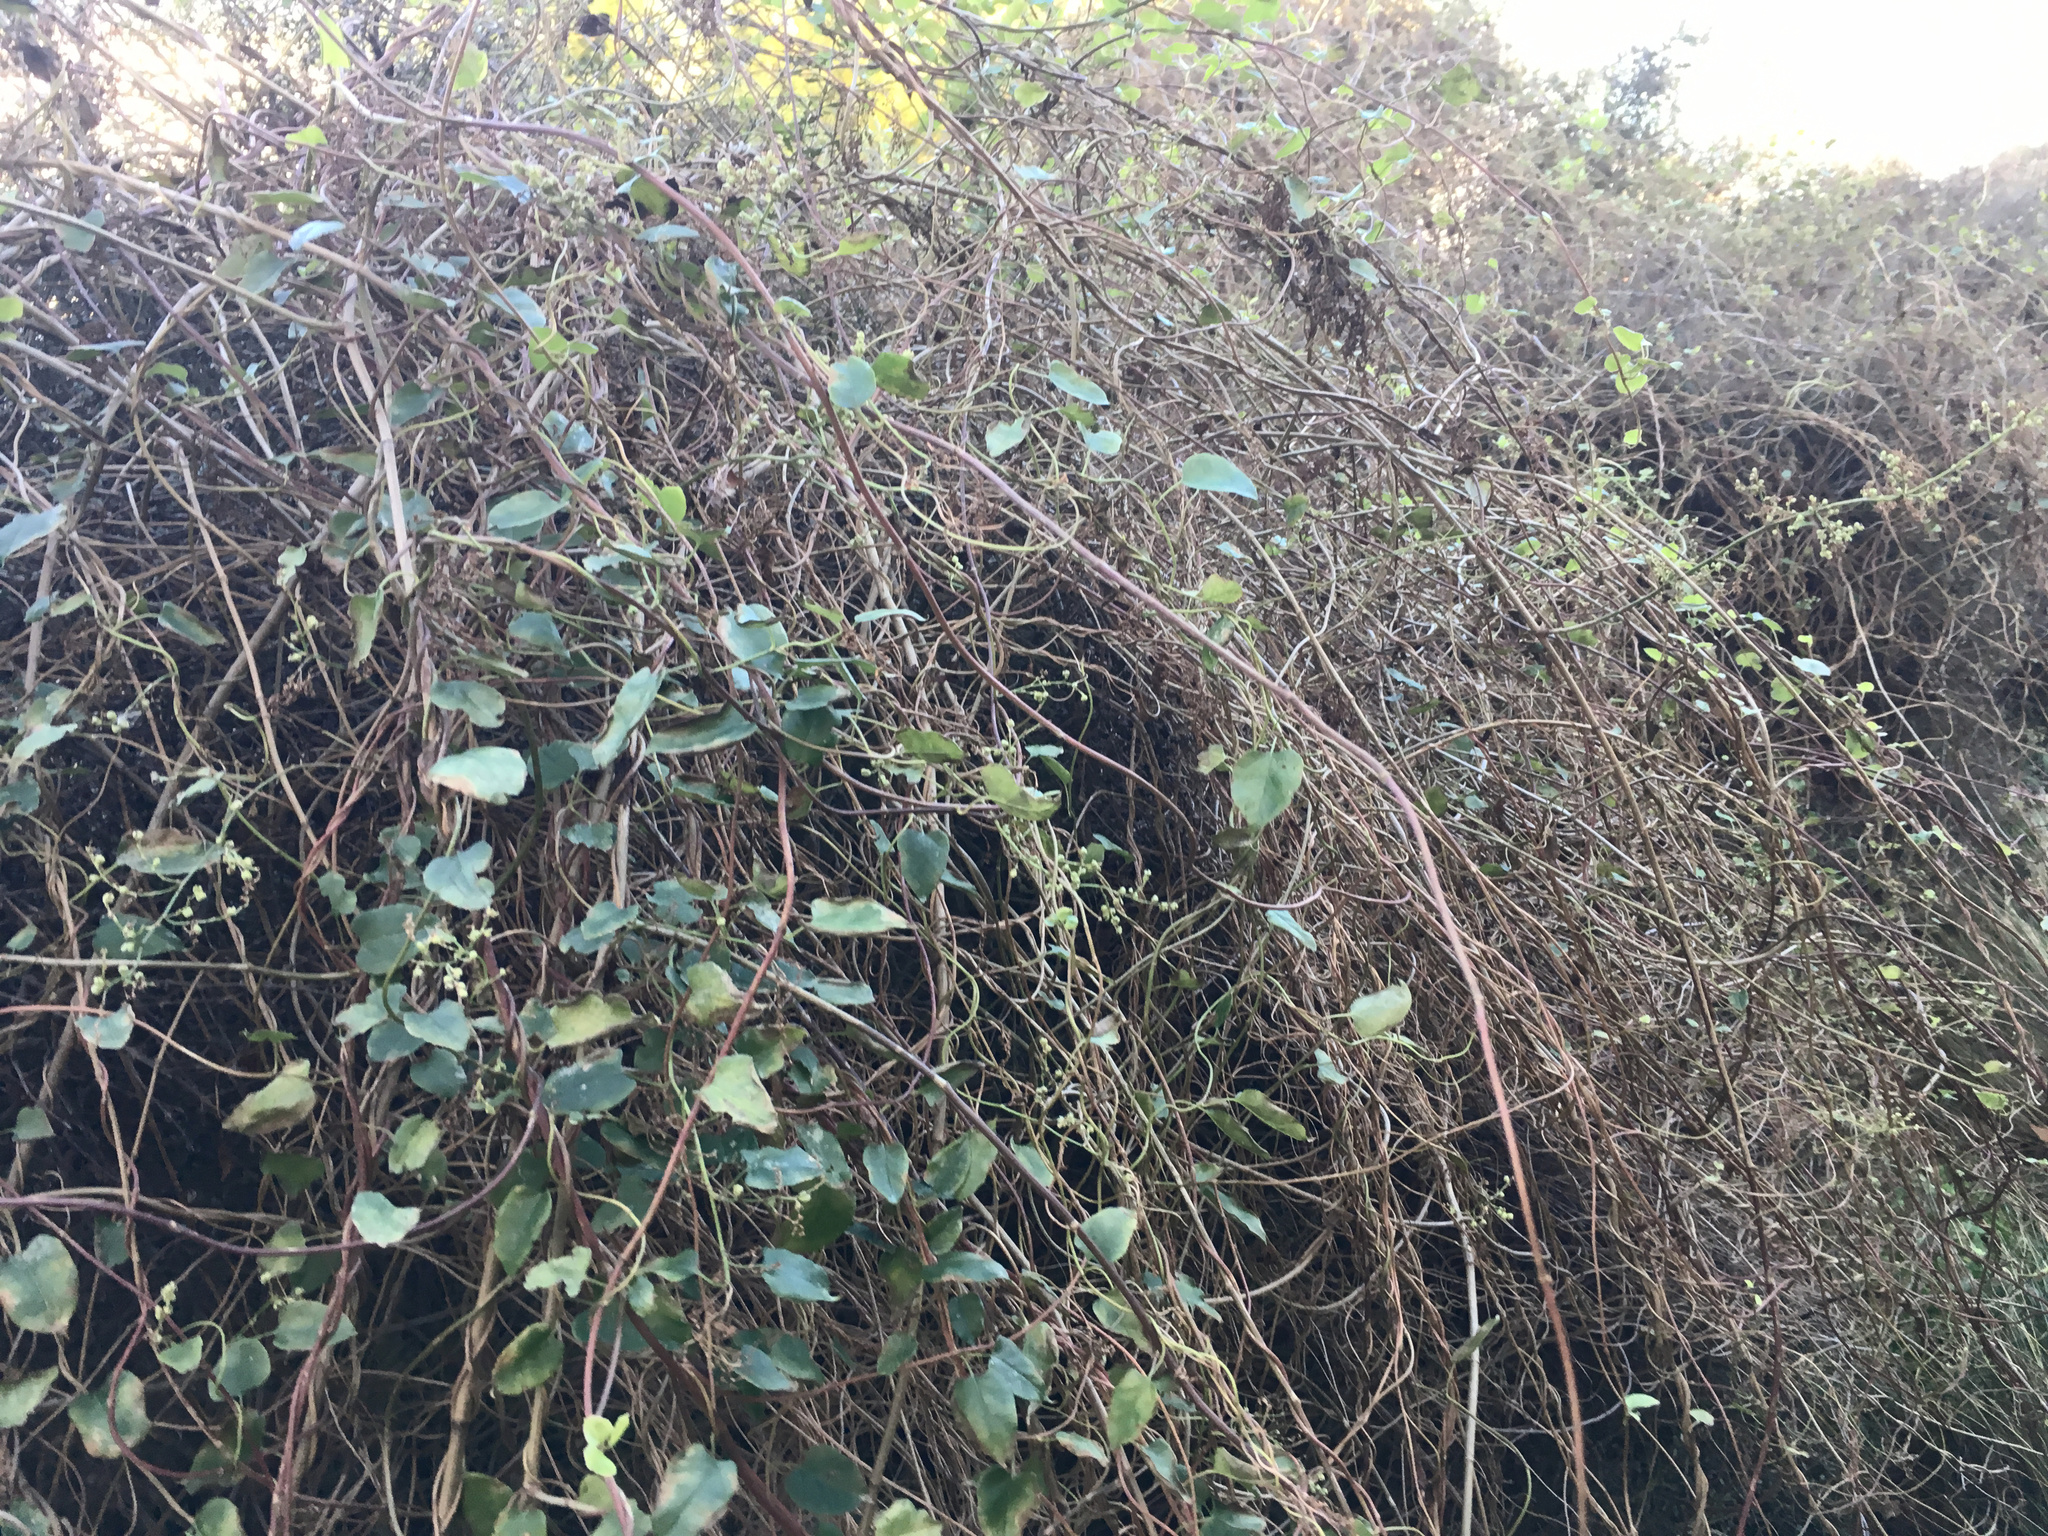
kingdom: Plantae
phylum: Tracheophyta
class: Magnoliopsida
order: Caryophyllales
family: Polygonaceae
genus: Muehlenbeckia
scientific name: Muehlenbeckia australis
